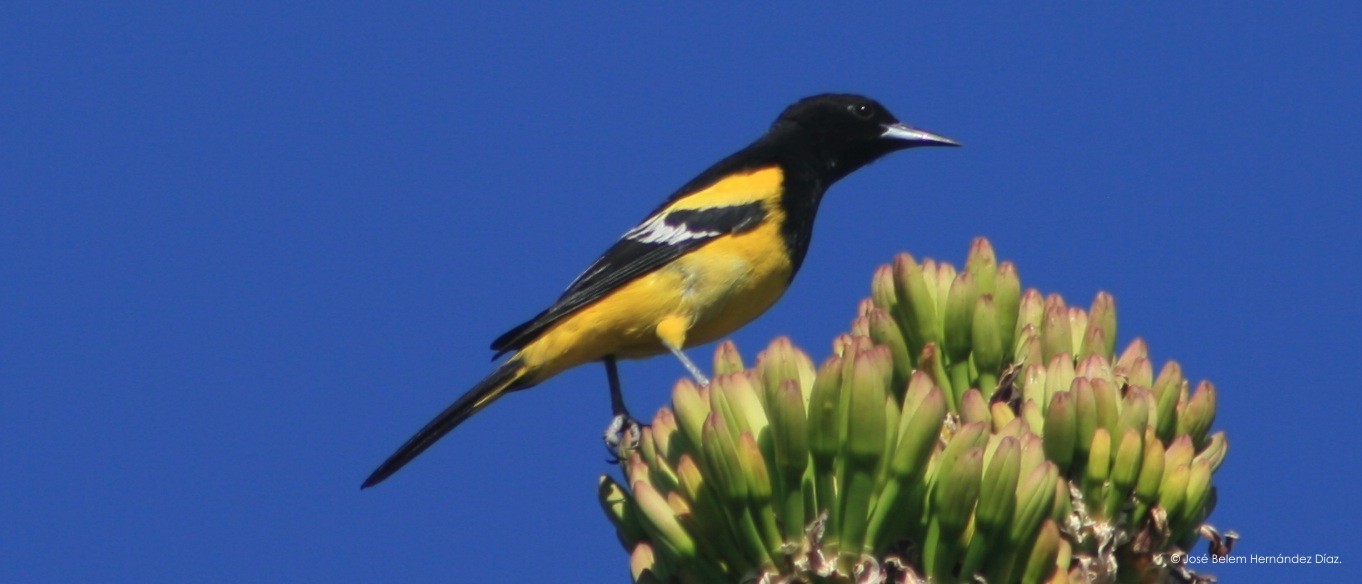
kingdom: Animalia
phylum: Chordata
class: Aves
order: Passeriformes
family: Icteridae
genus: Icterus
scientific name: Icterus parisorum
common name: Scott's oriole
